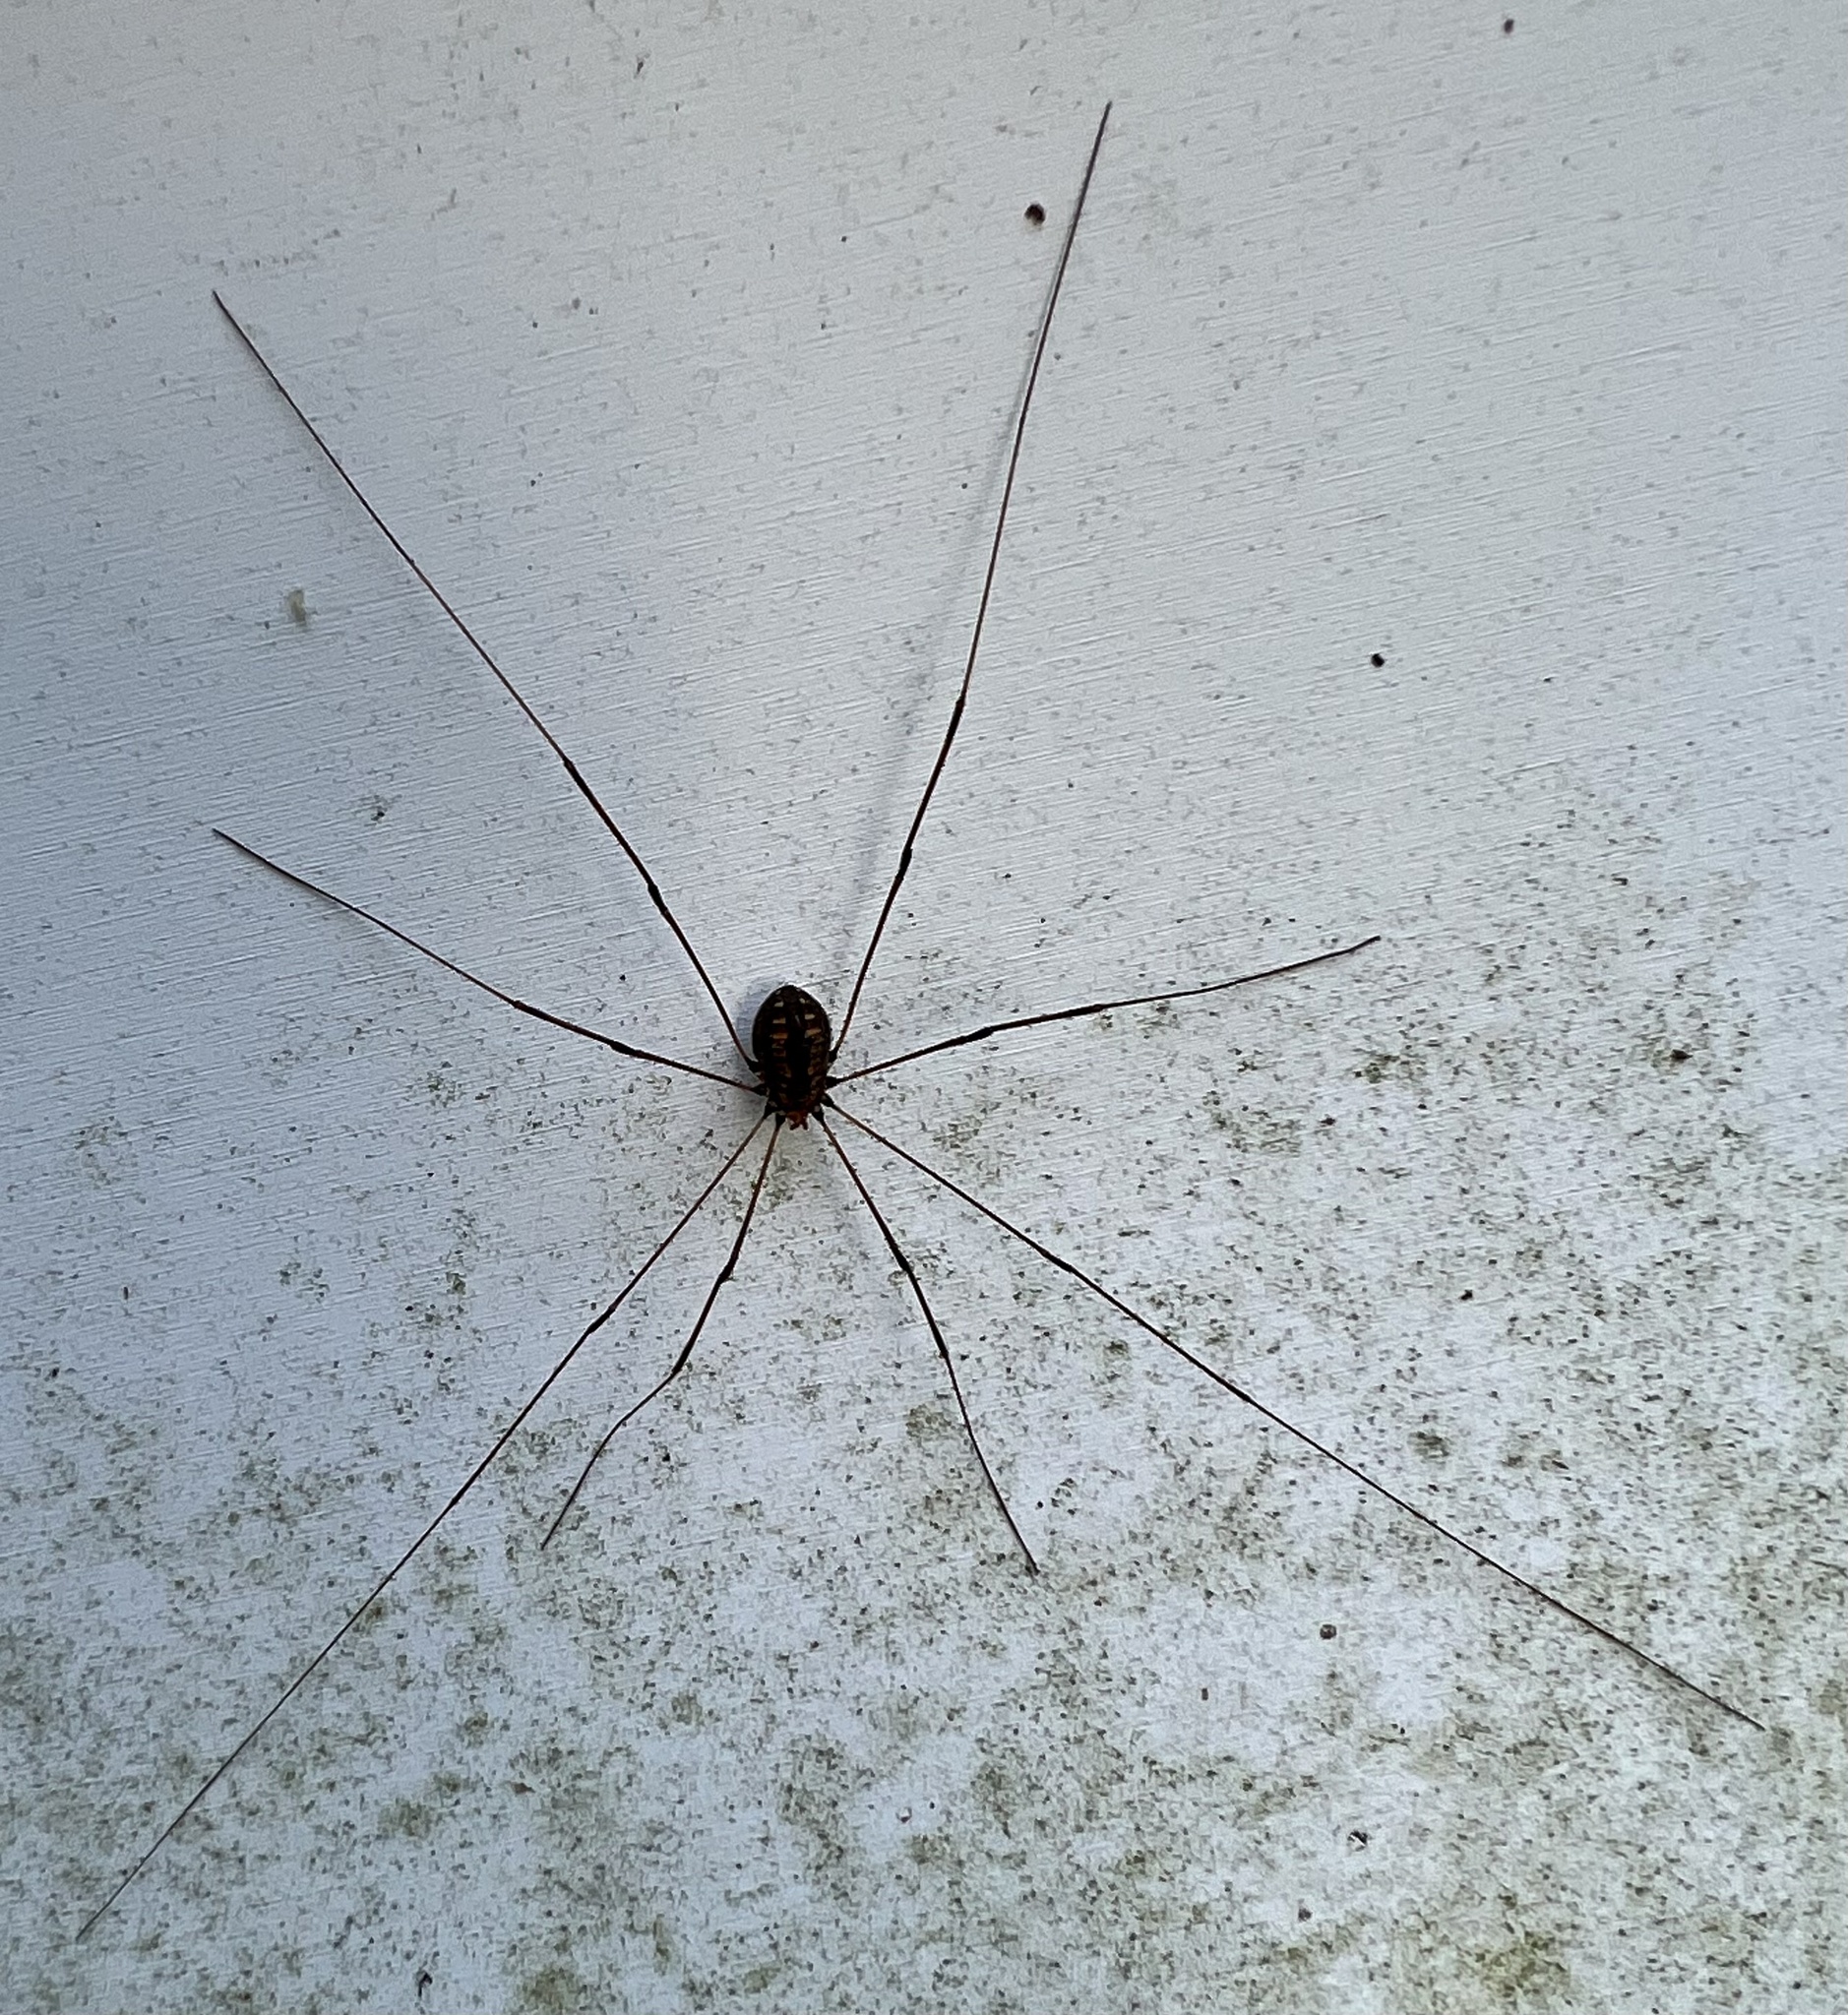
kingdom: Animalia
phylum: Arthropoda
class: Arachnida
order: Opiliones
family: Sclerosomatidae
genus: Leiobunum
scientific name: Leiobunum vittatum
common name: Eastern harvestman
